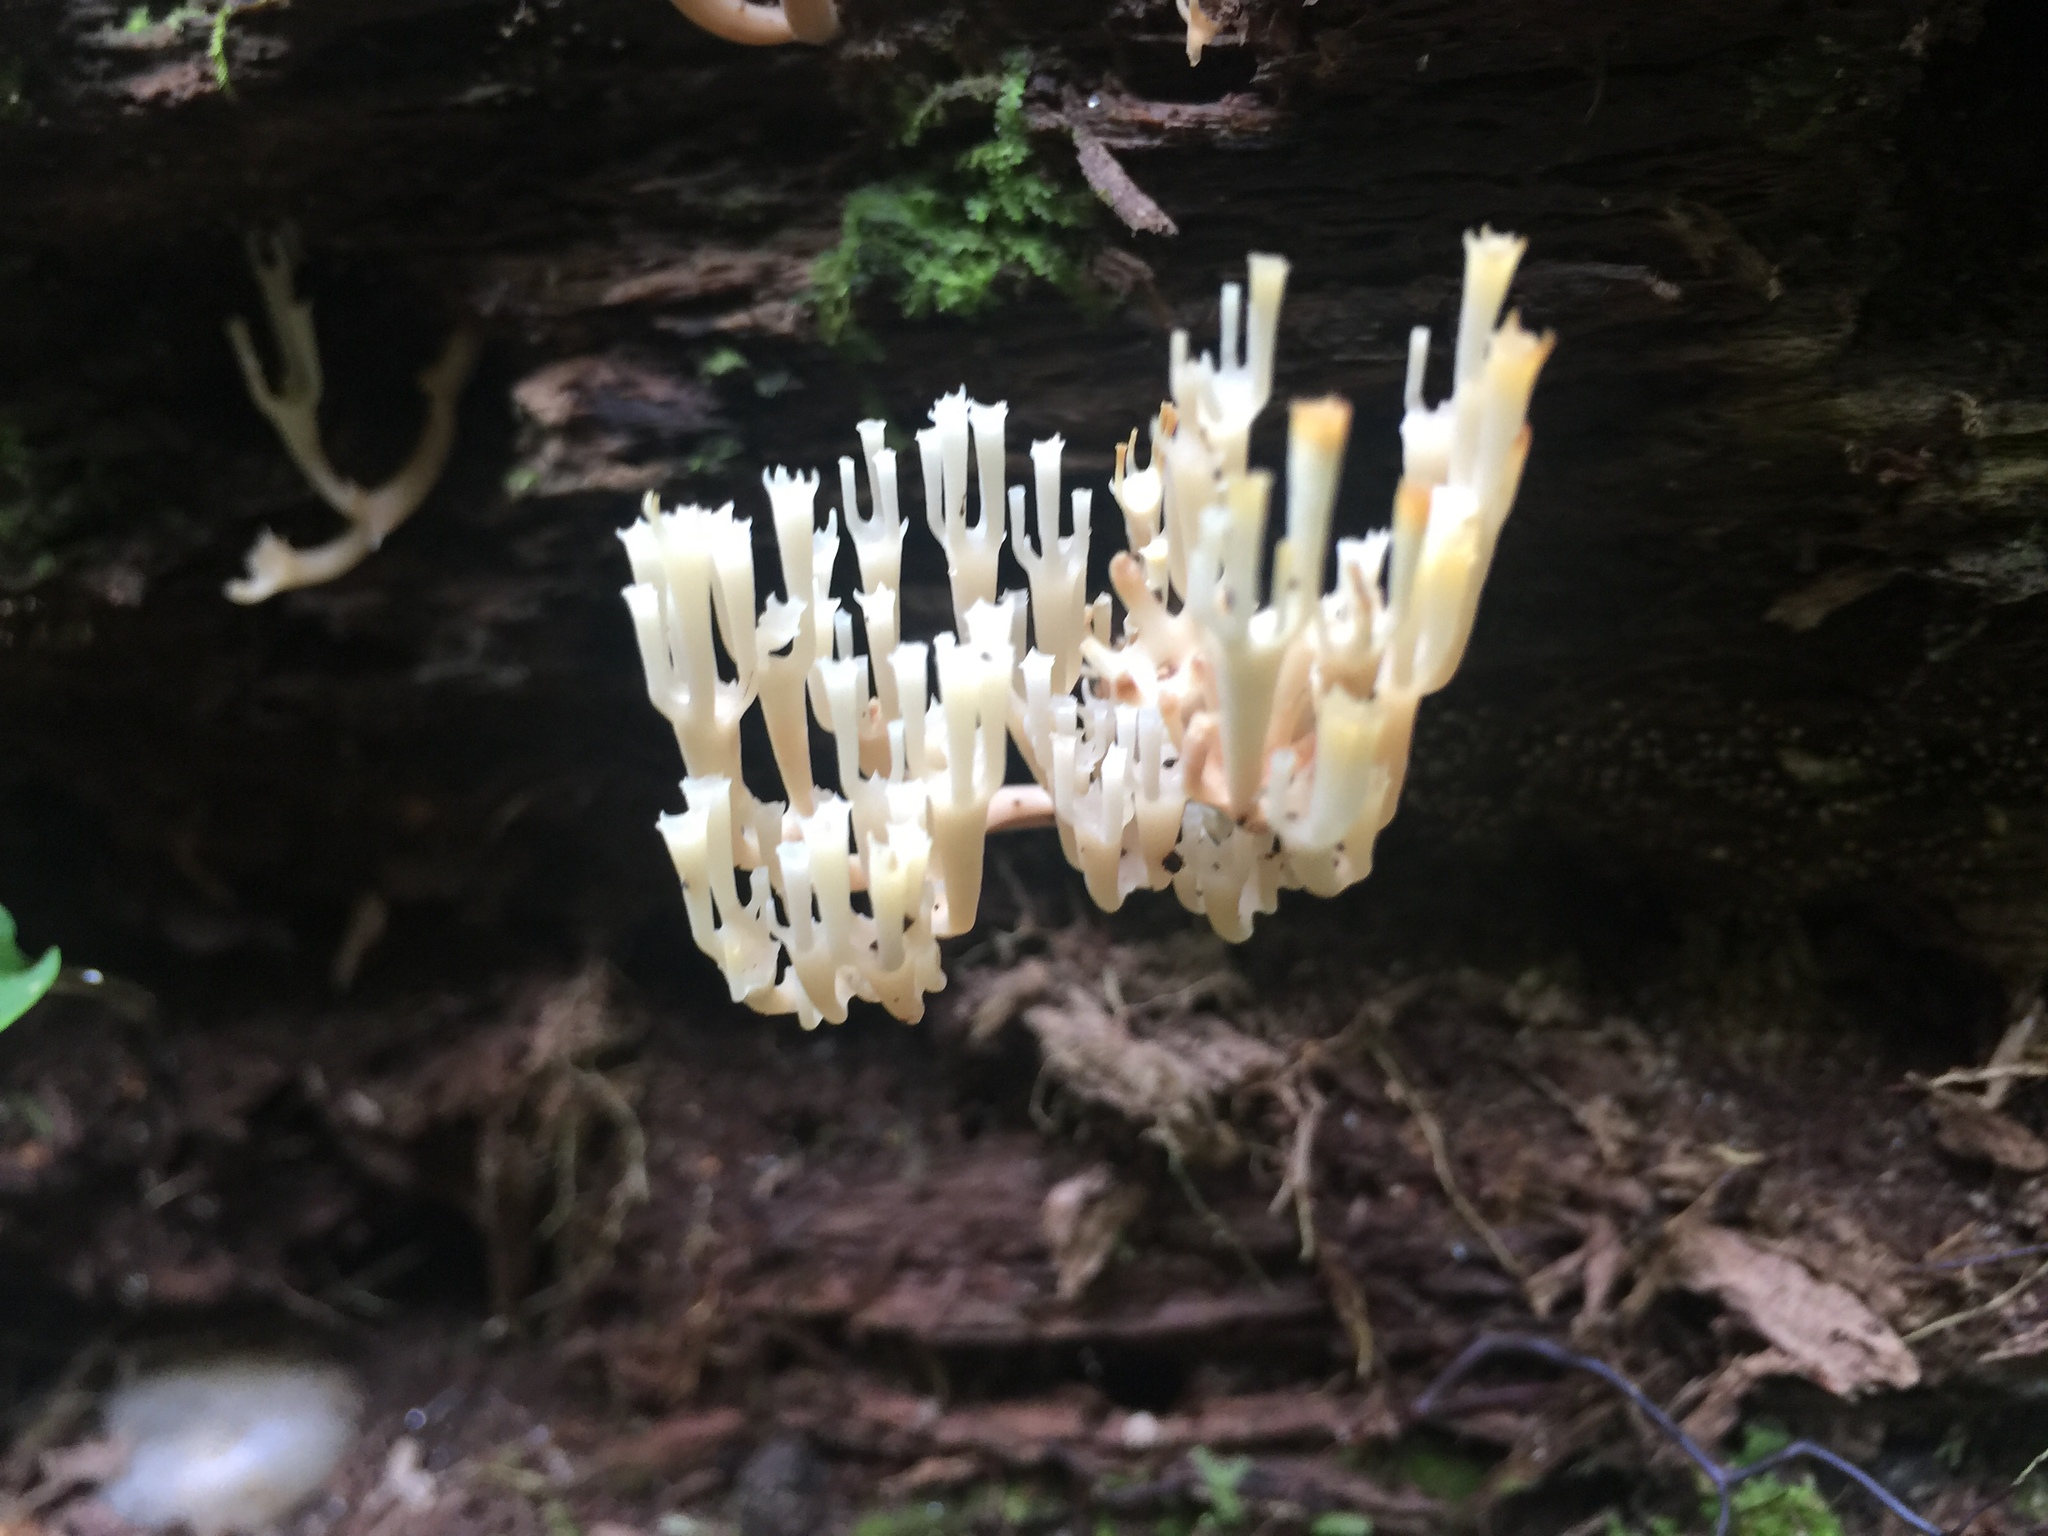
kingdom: Fungi
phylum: Basidiomycota
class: Agaricomycetes
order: Russulales
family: Auriscalpiaceae
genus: Artomyces
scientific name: Artomyces pyxidatus
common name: Crown-tipped coral fungus
